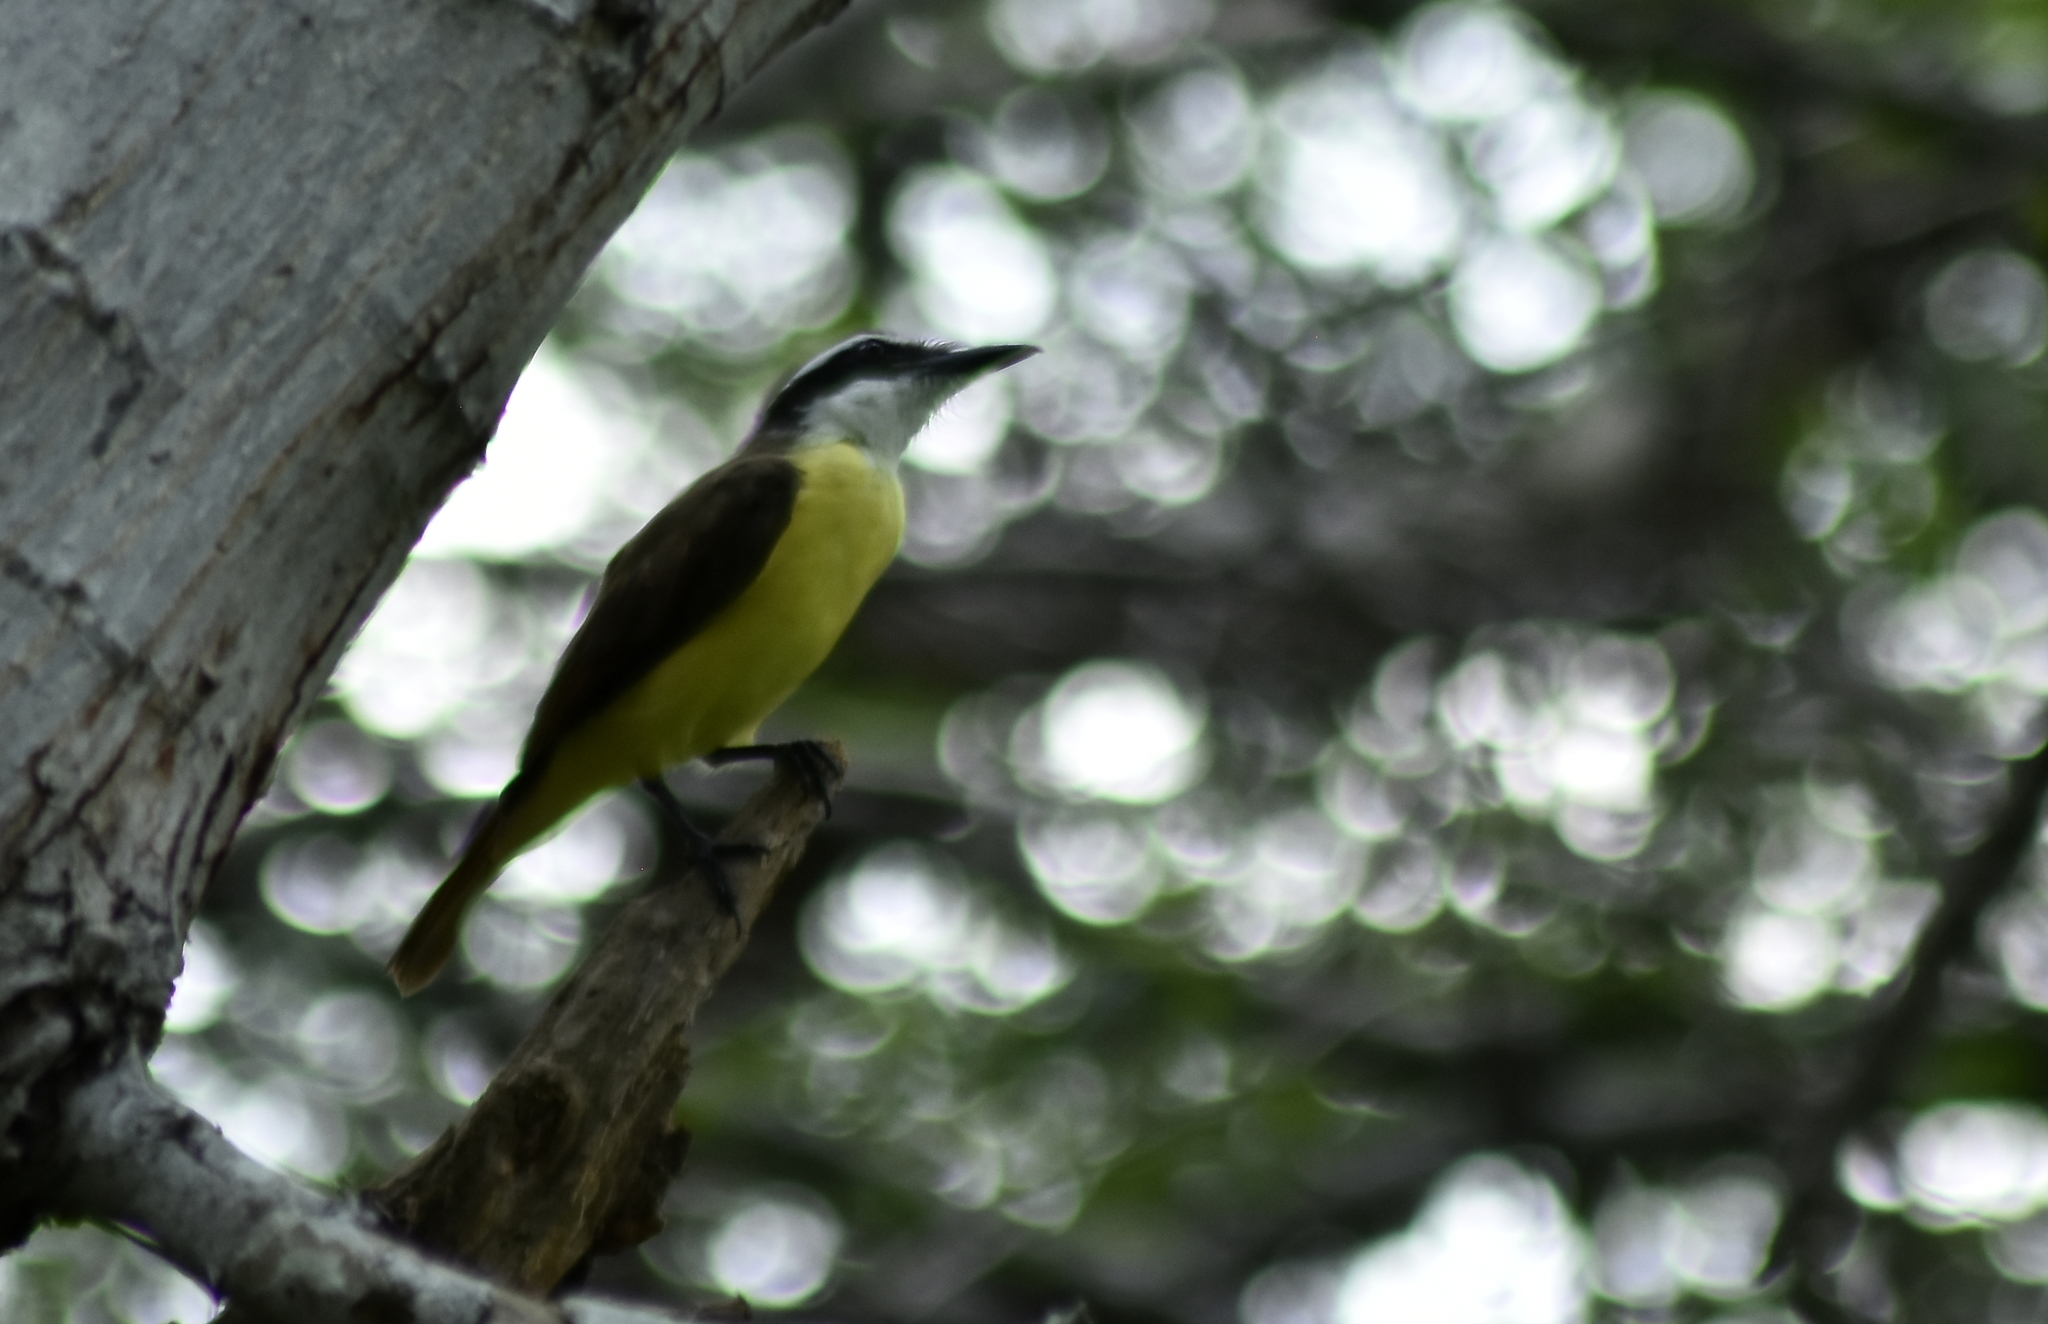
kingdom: Animalia
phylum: Chordata
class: Aves
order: Passeriformes
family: Tyrannidae
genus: Pitangus
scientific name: Pitangus sulphuratus
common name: Great kiskadee
